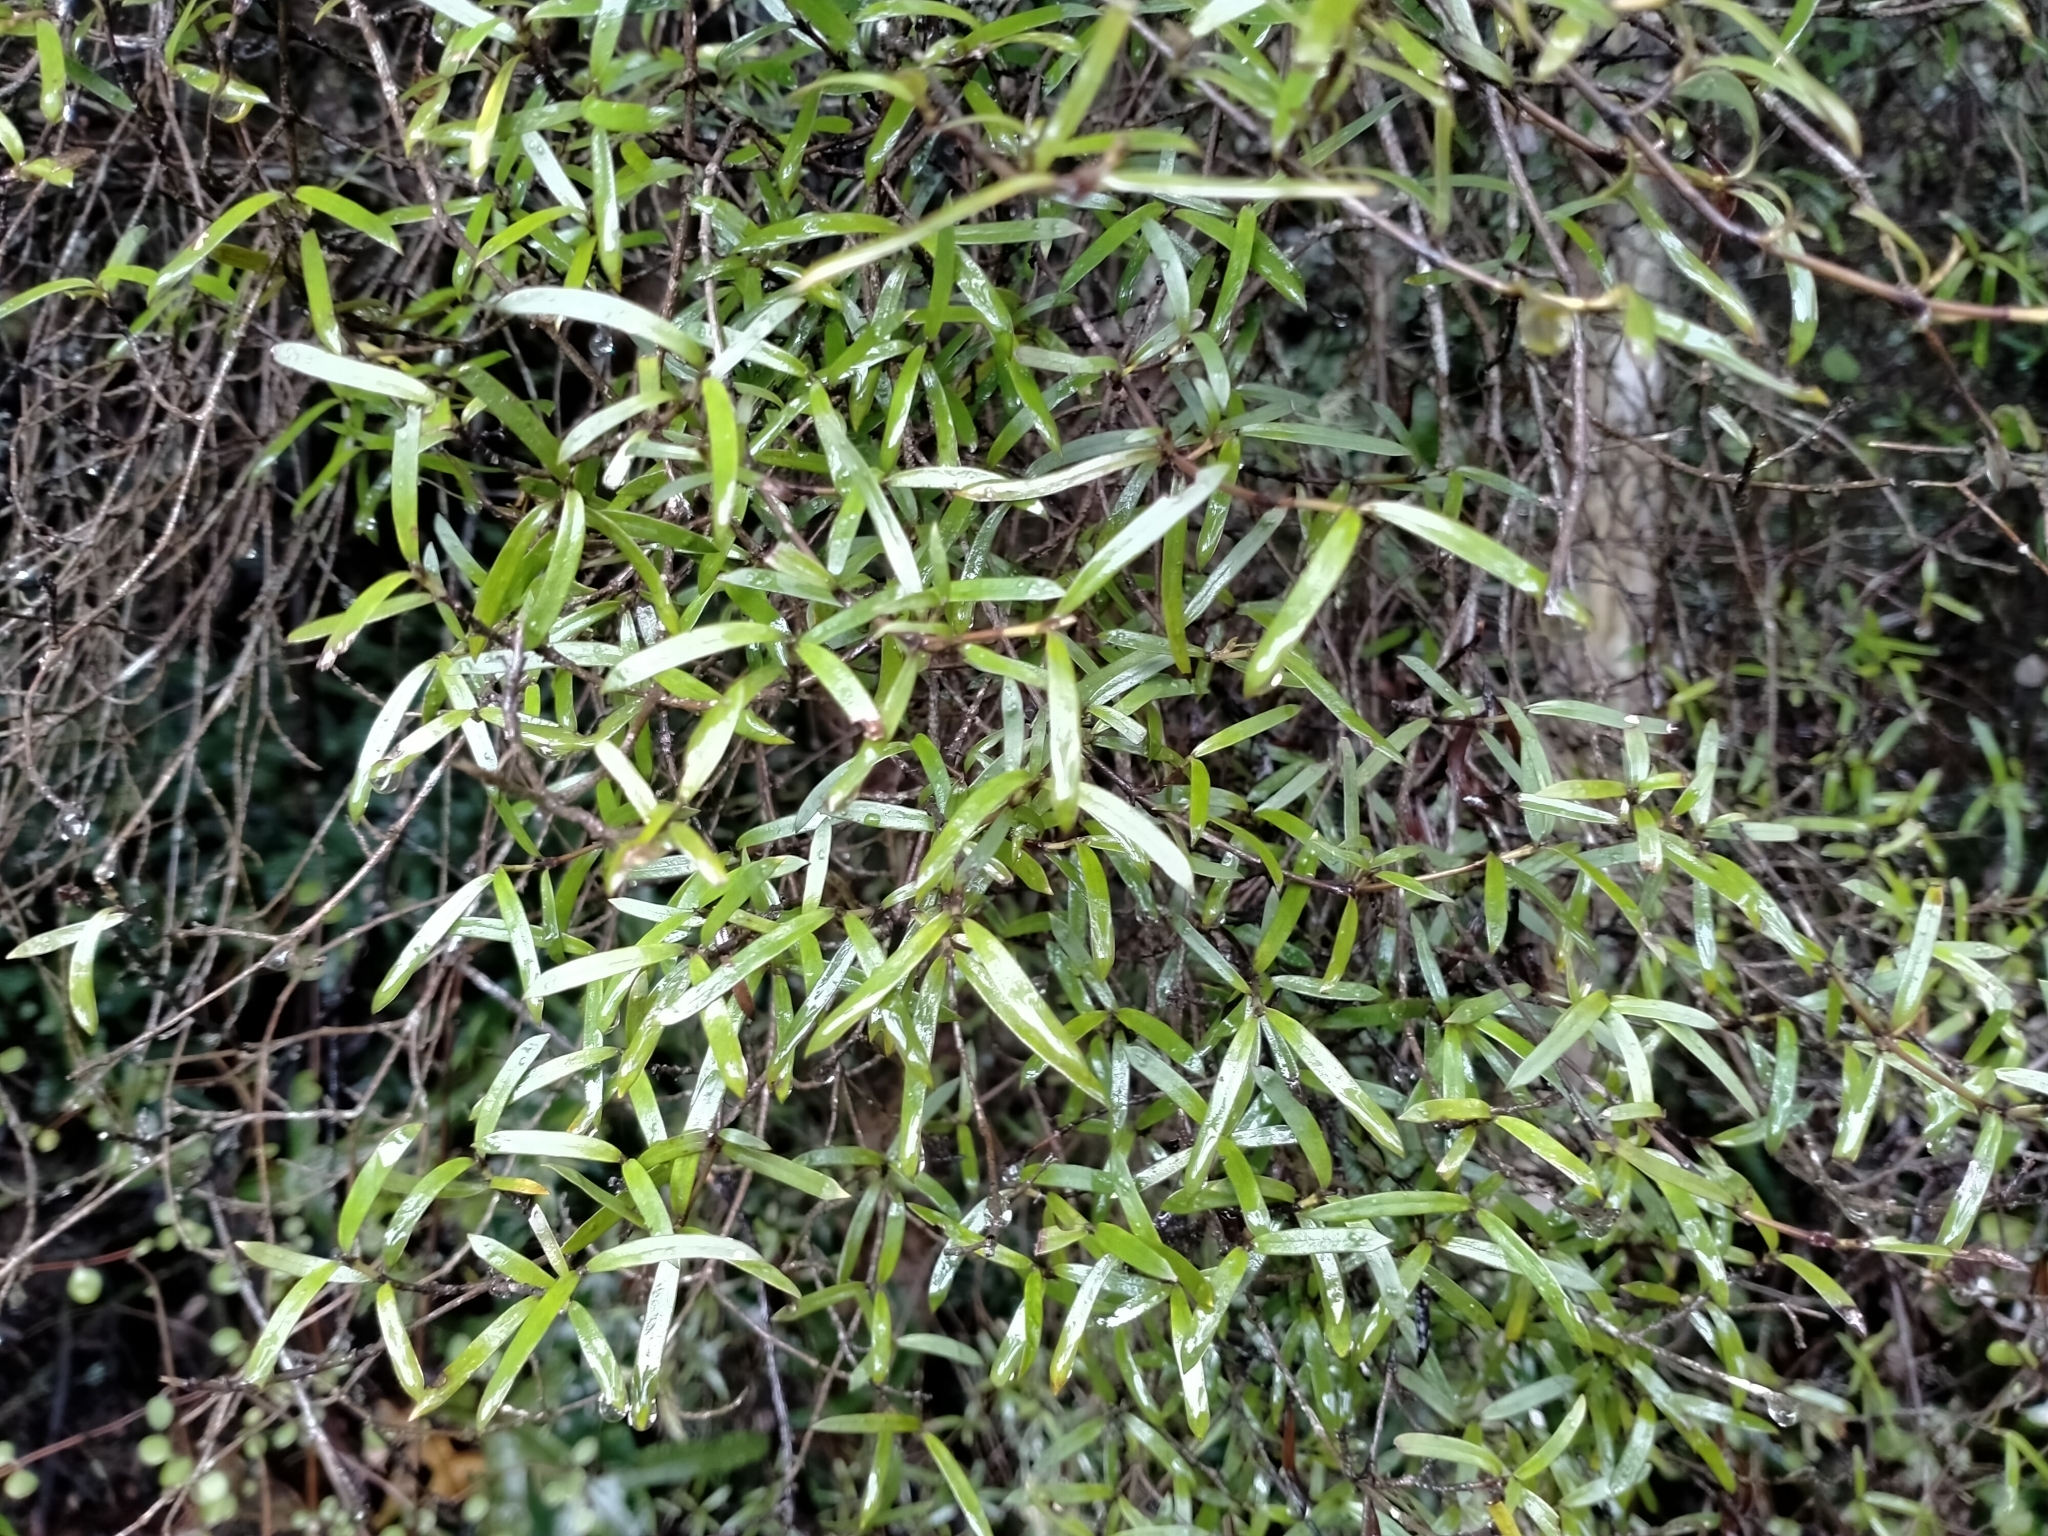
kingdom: Plantae
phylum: Tracheophyta
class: Magnoliopsida
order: Gentianales
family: Rubiaceae
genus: Coprosma
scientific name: Coprosma linariifolia
